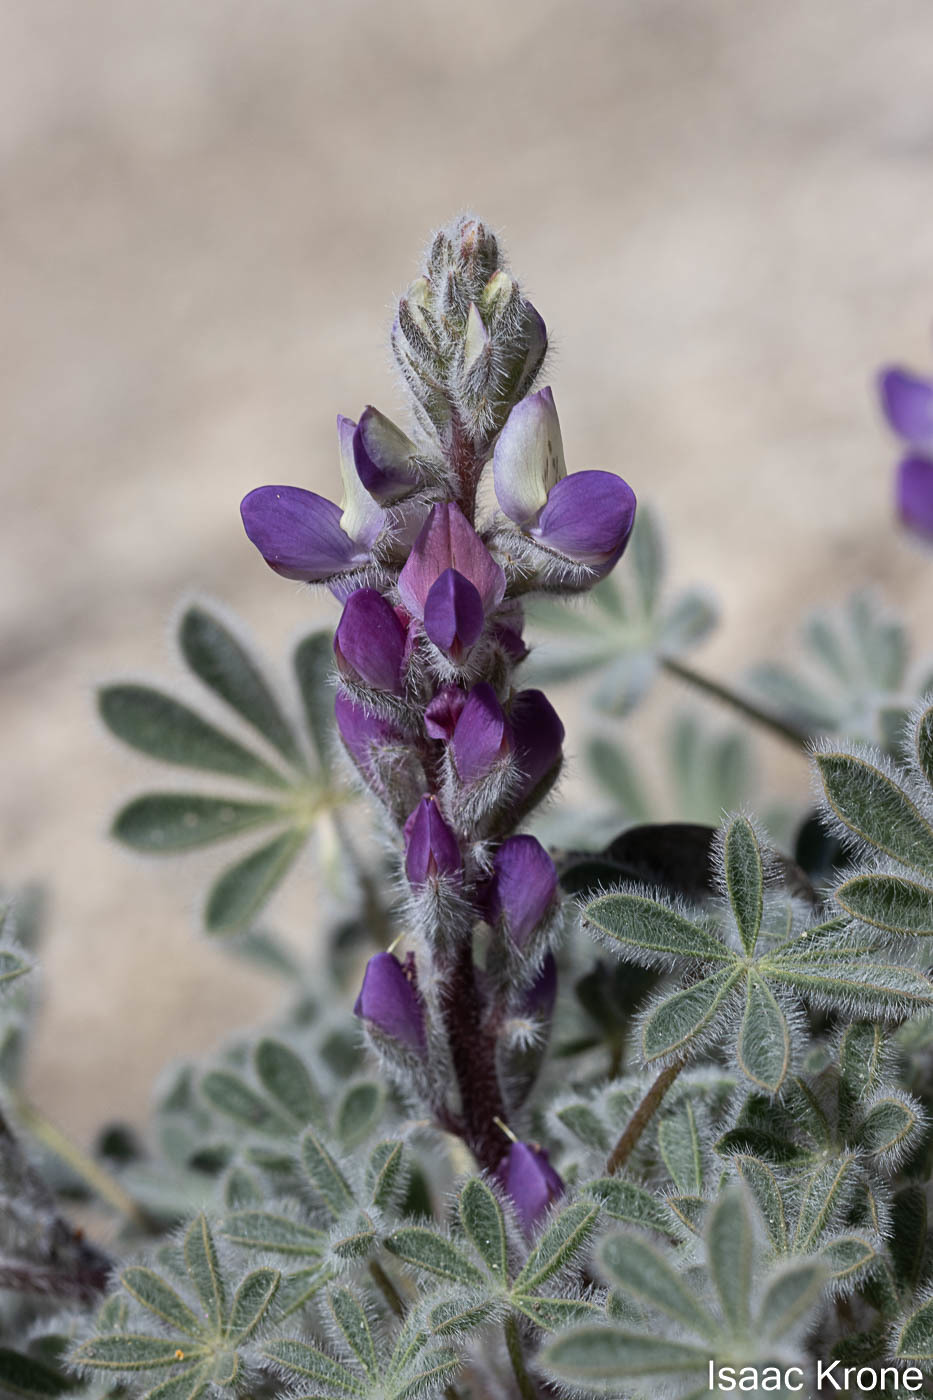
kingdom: Plantae
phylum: Tracheophyta
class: Magnoliopsida
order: Fabales
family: Fabaceae
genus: Lupinus
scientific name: Lupinus concinnus
